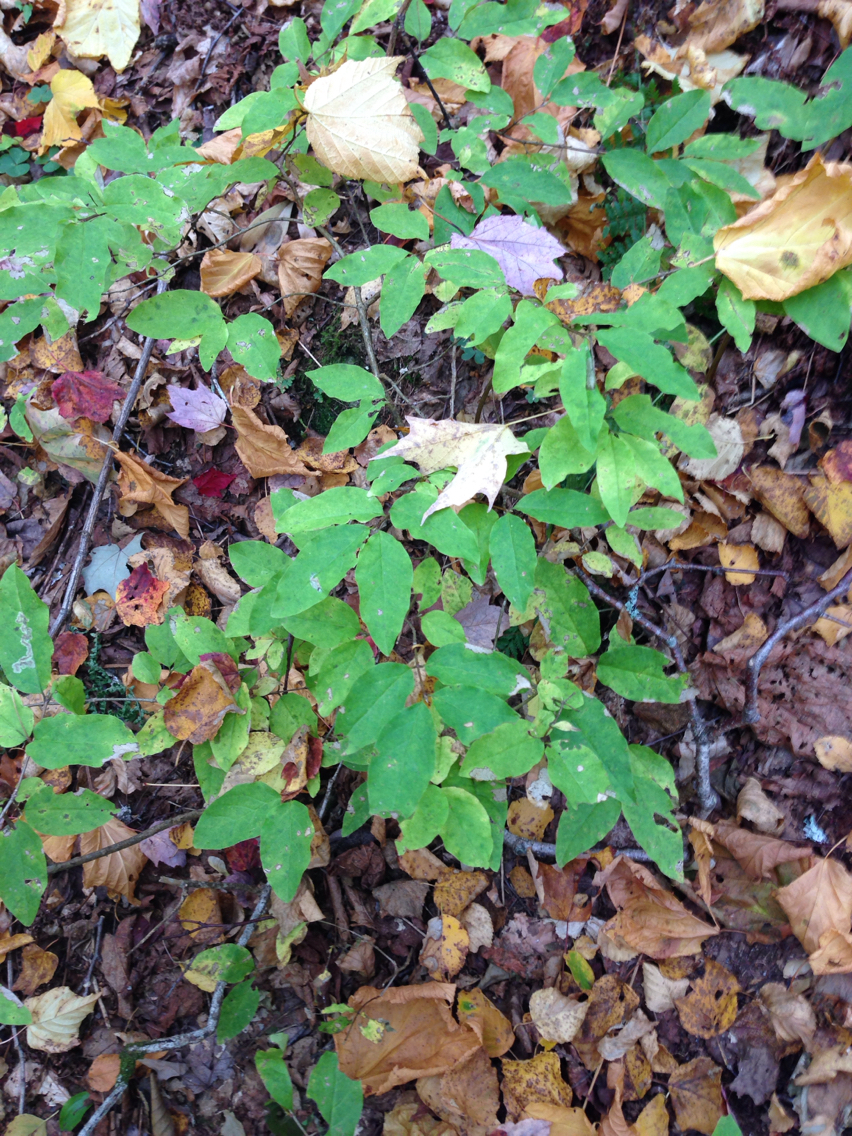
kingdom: Plantae
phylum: Tracheophyta
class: Magnoliopsida
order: Dipsacales
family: Caprifoliaceae
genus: Lonicera
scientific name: Lonicera canadensis
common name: American fly-honeysuckle
